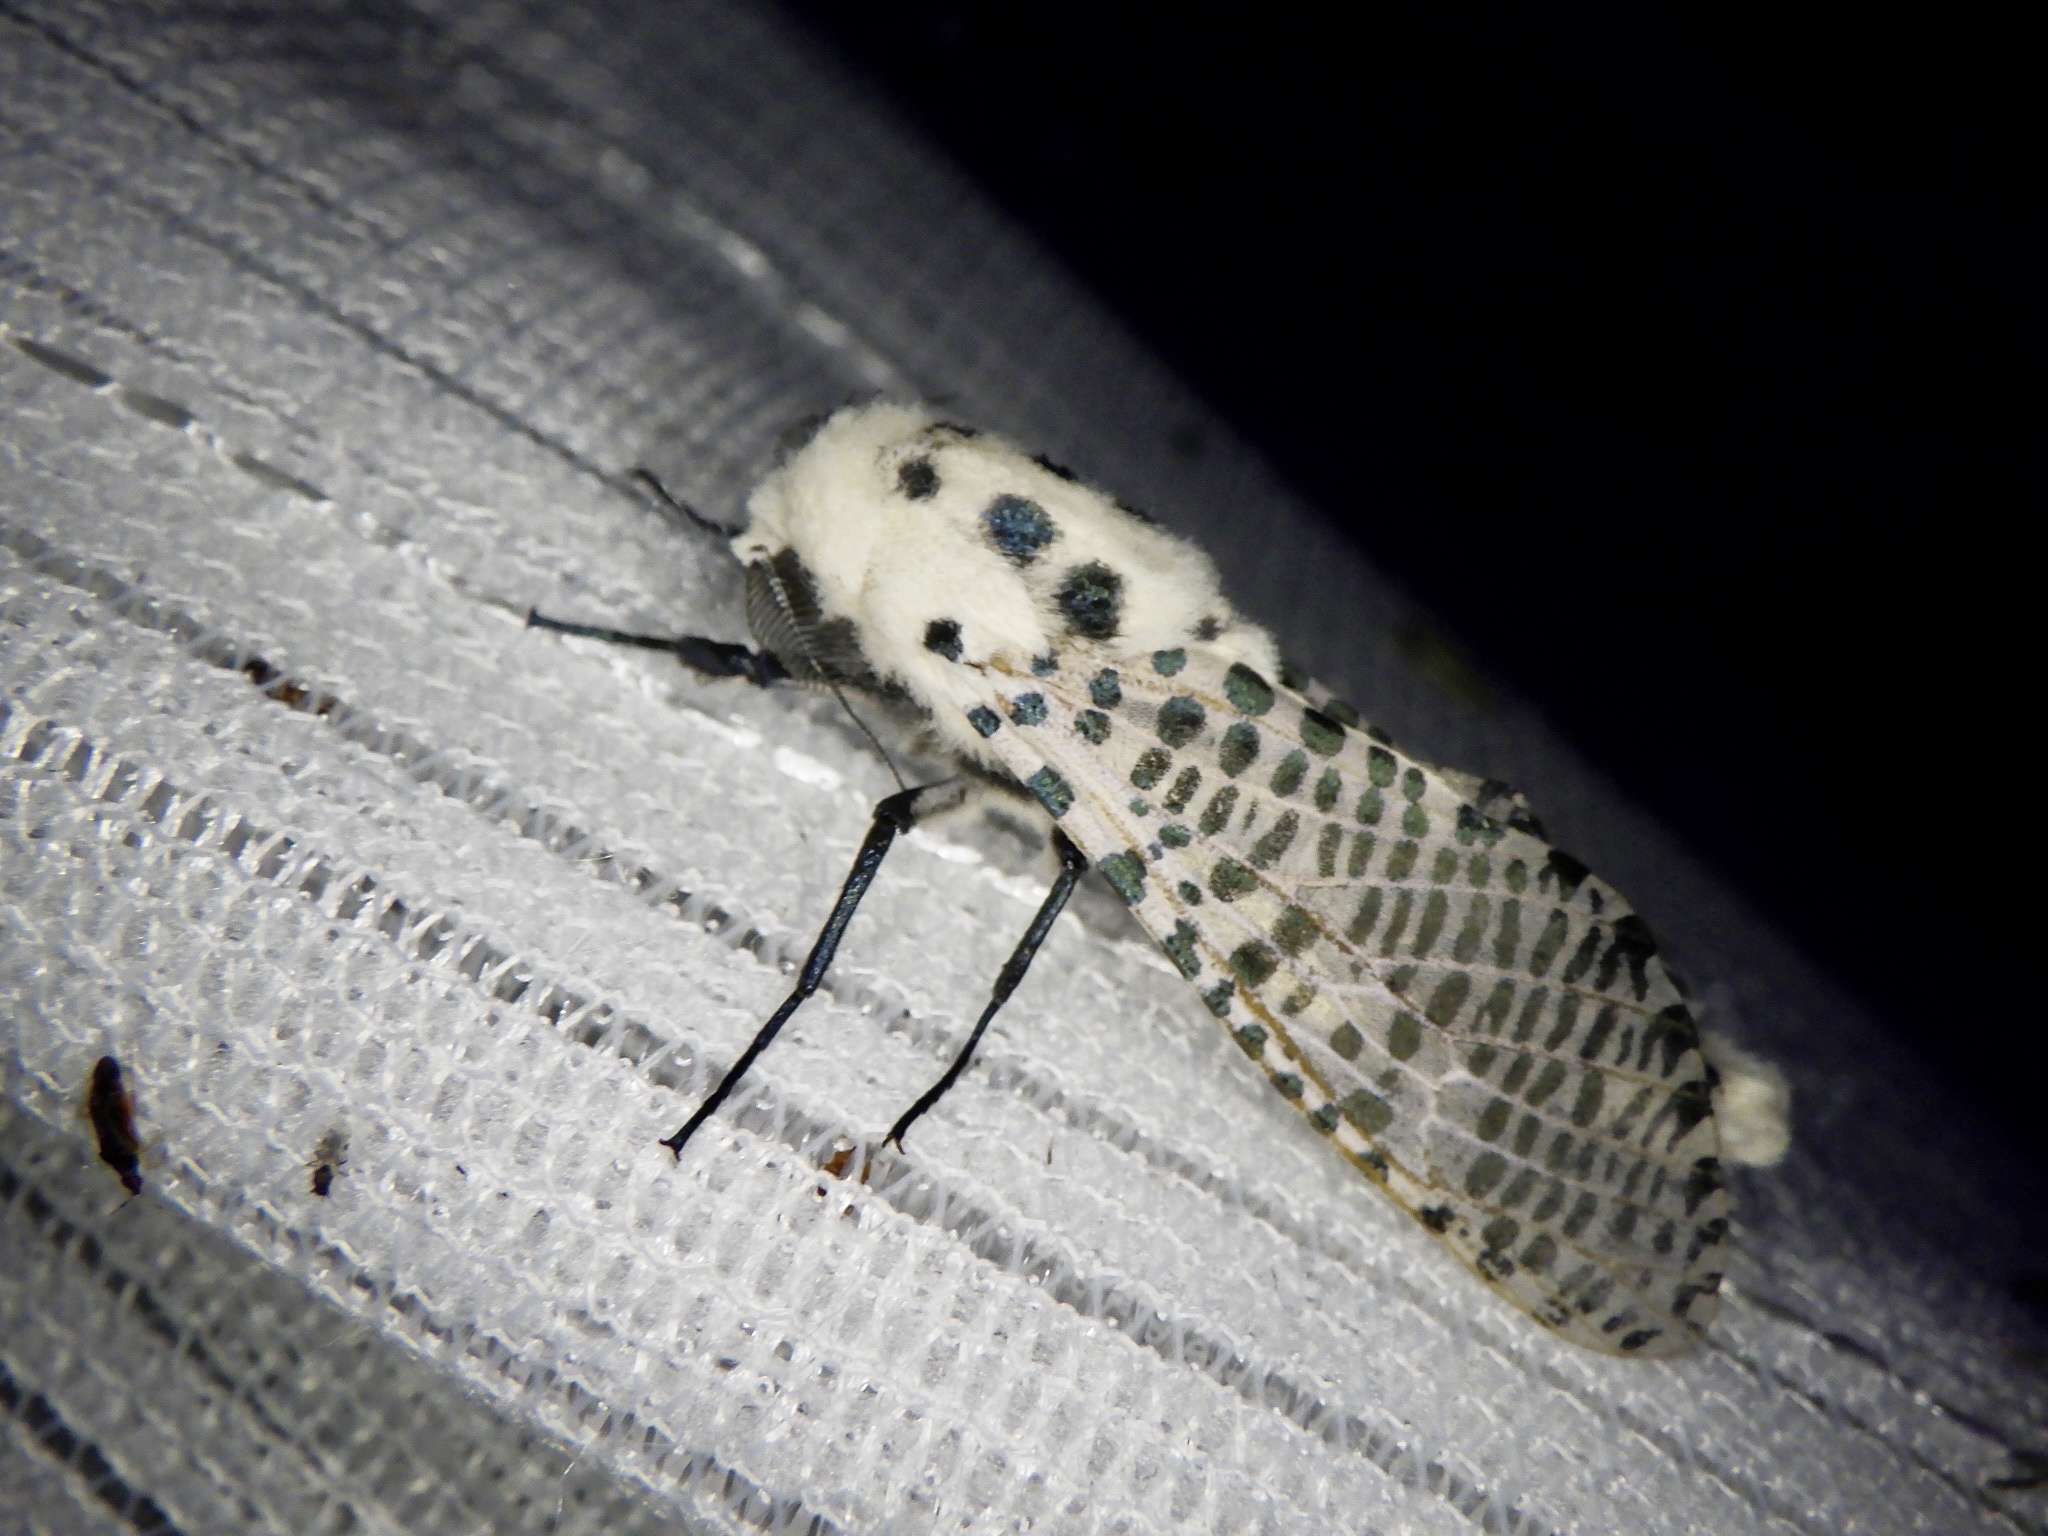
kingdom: Animalia
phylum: Arthropoda
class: Insecta
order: Lepidoptera
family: Cossidae
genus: Zeuzera
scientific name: Zeuzera multistrigata
